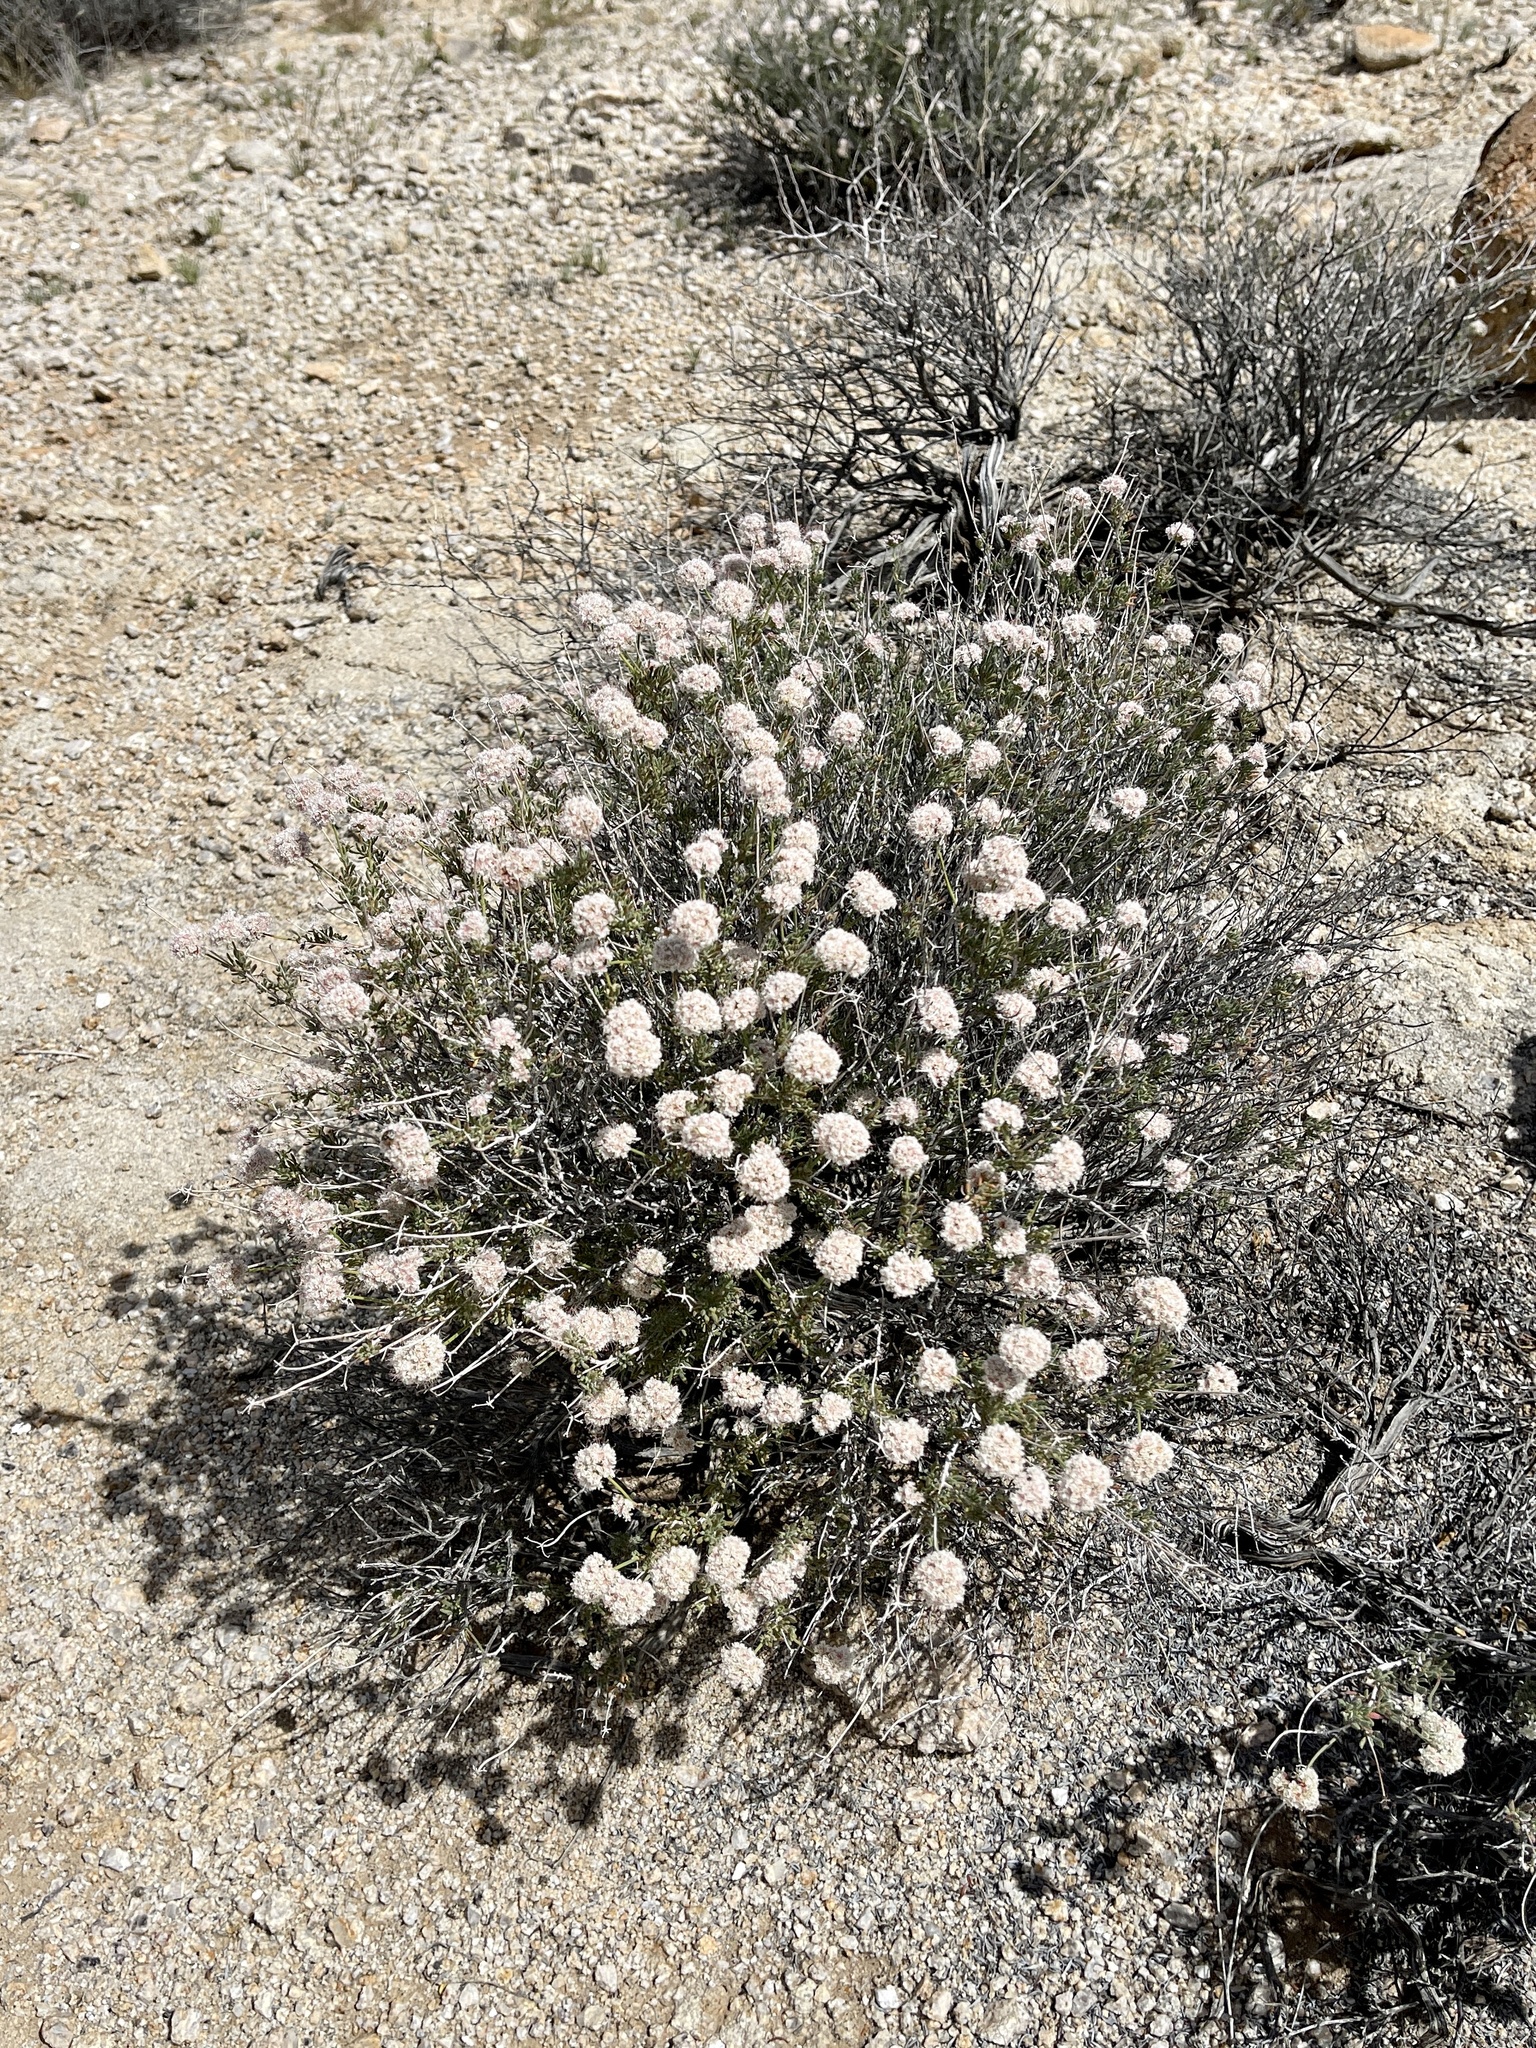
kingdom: Plantae
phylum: Tracheophyta
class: Magnoliopsida
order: Caryophyllales
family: Polygonaceae
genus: Eriogonum
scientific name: Eriogonum fasciculatum
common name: California wild buckwheat
